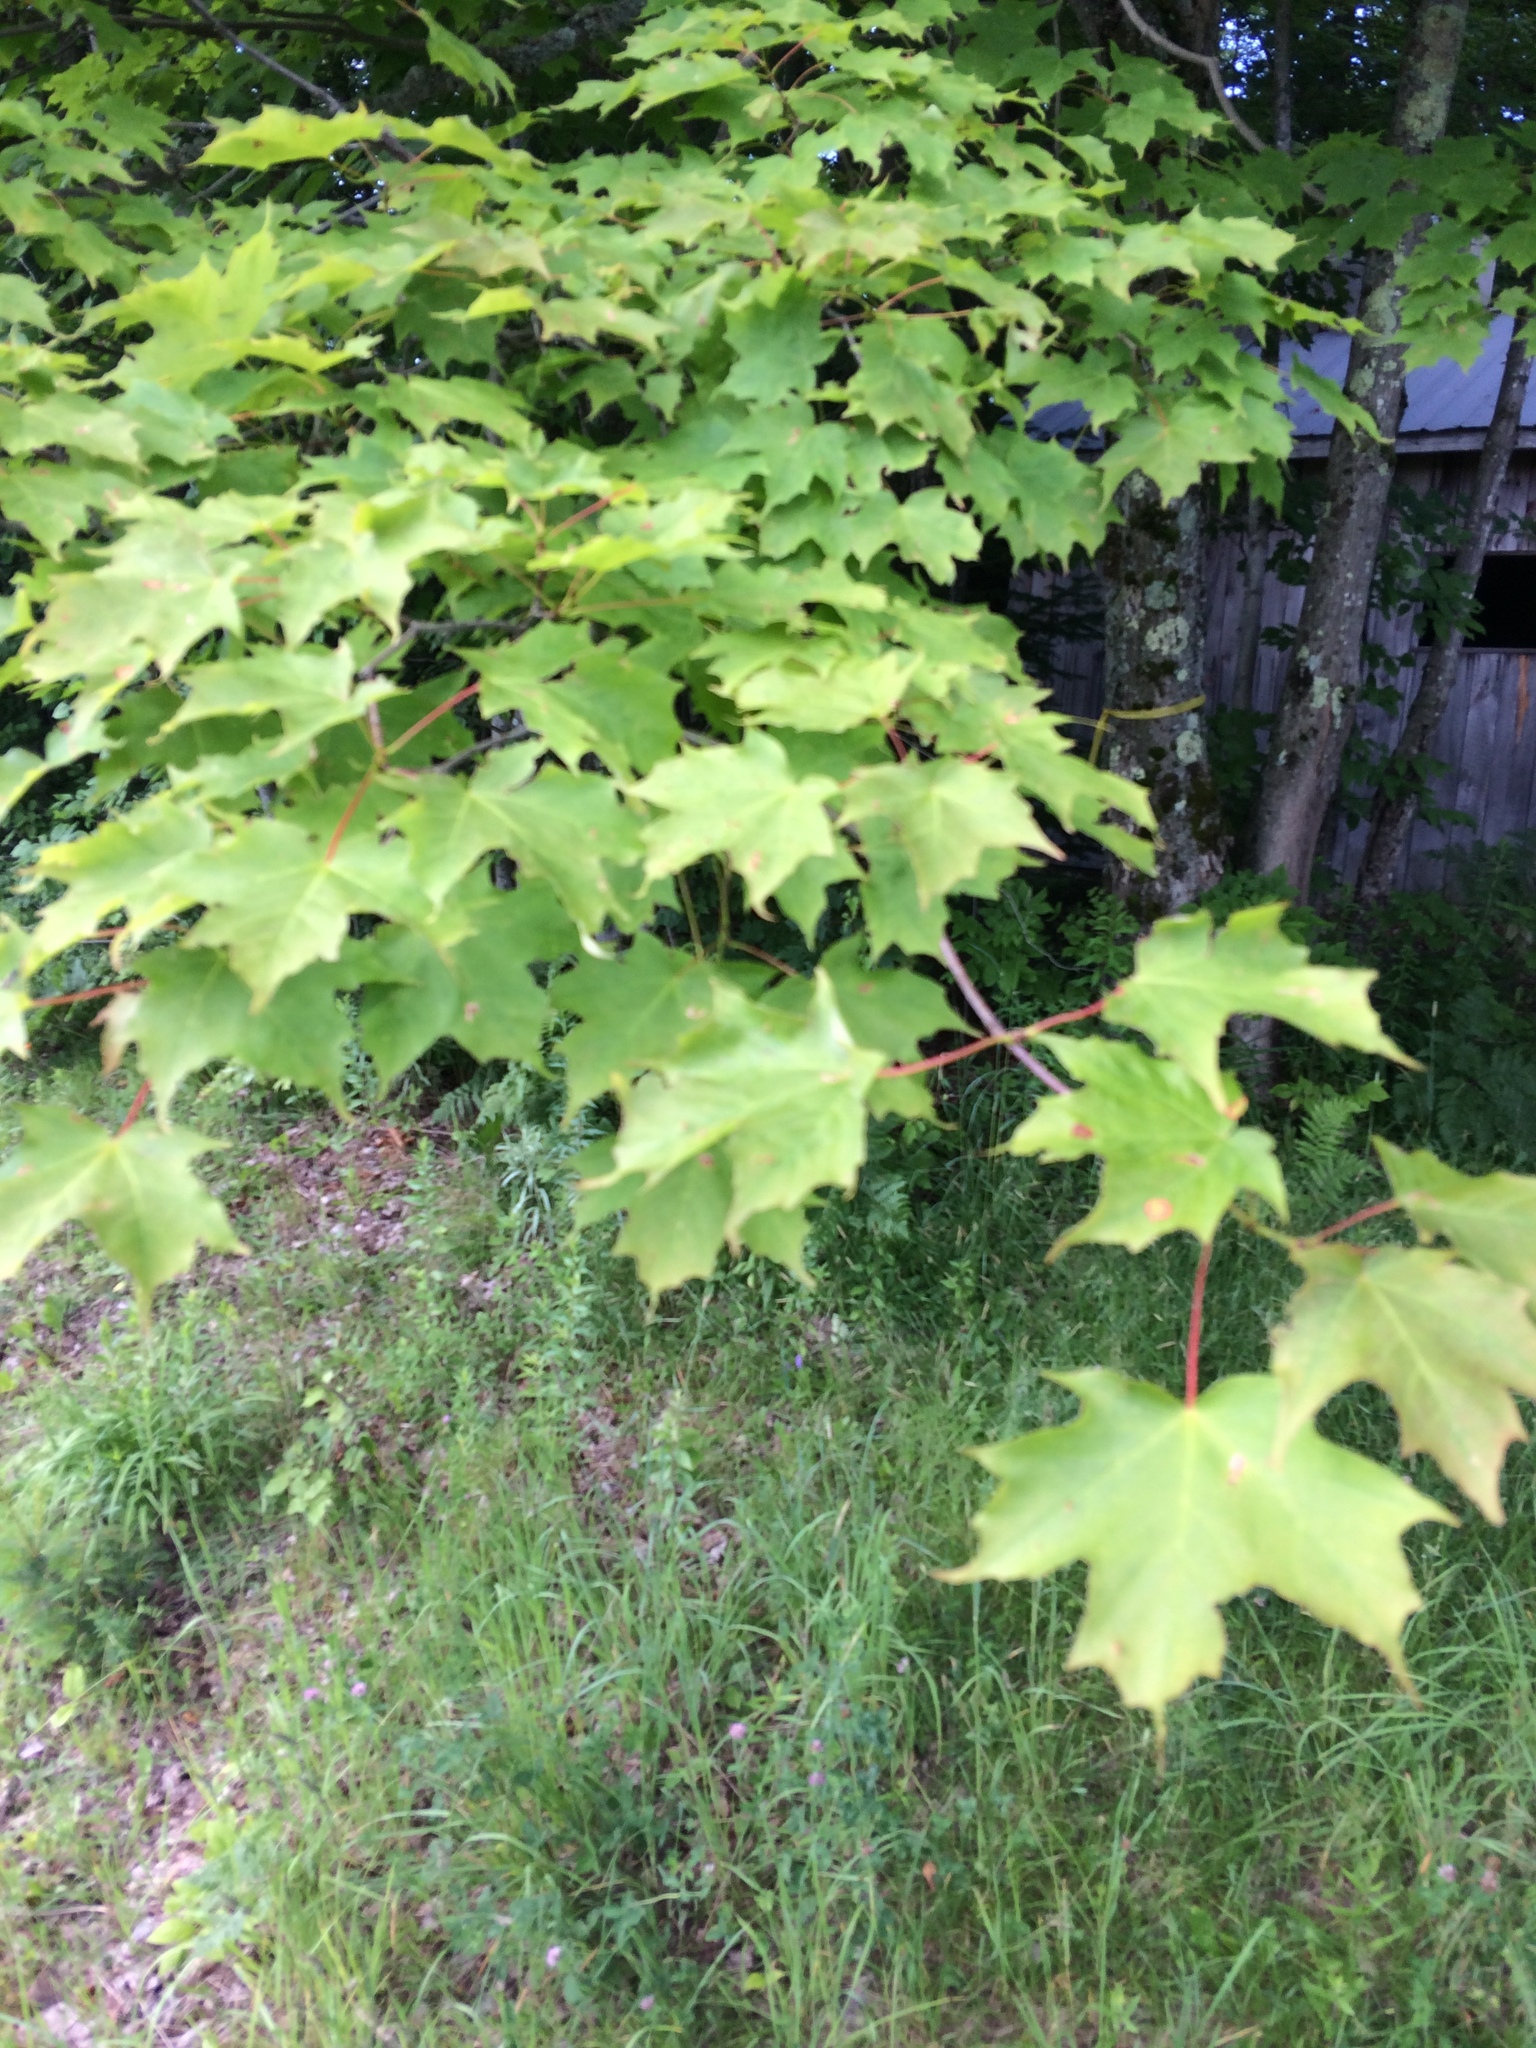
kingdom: Plantae
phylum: Tracheophyta
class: Magnoliopsida
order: Sapindales
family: Sapindaceae
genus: Acer
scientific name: Acer saccharum
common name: Sugar maple
